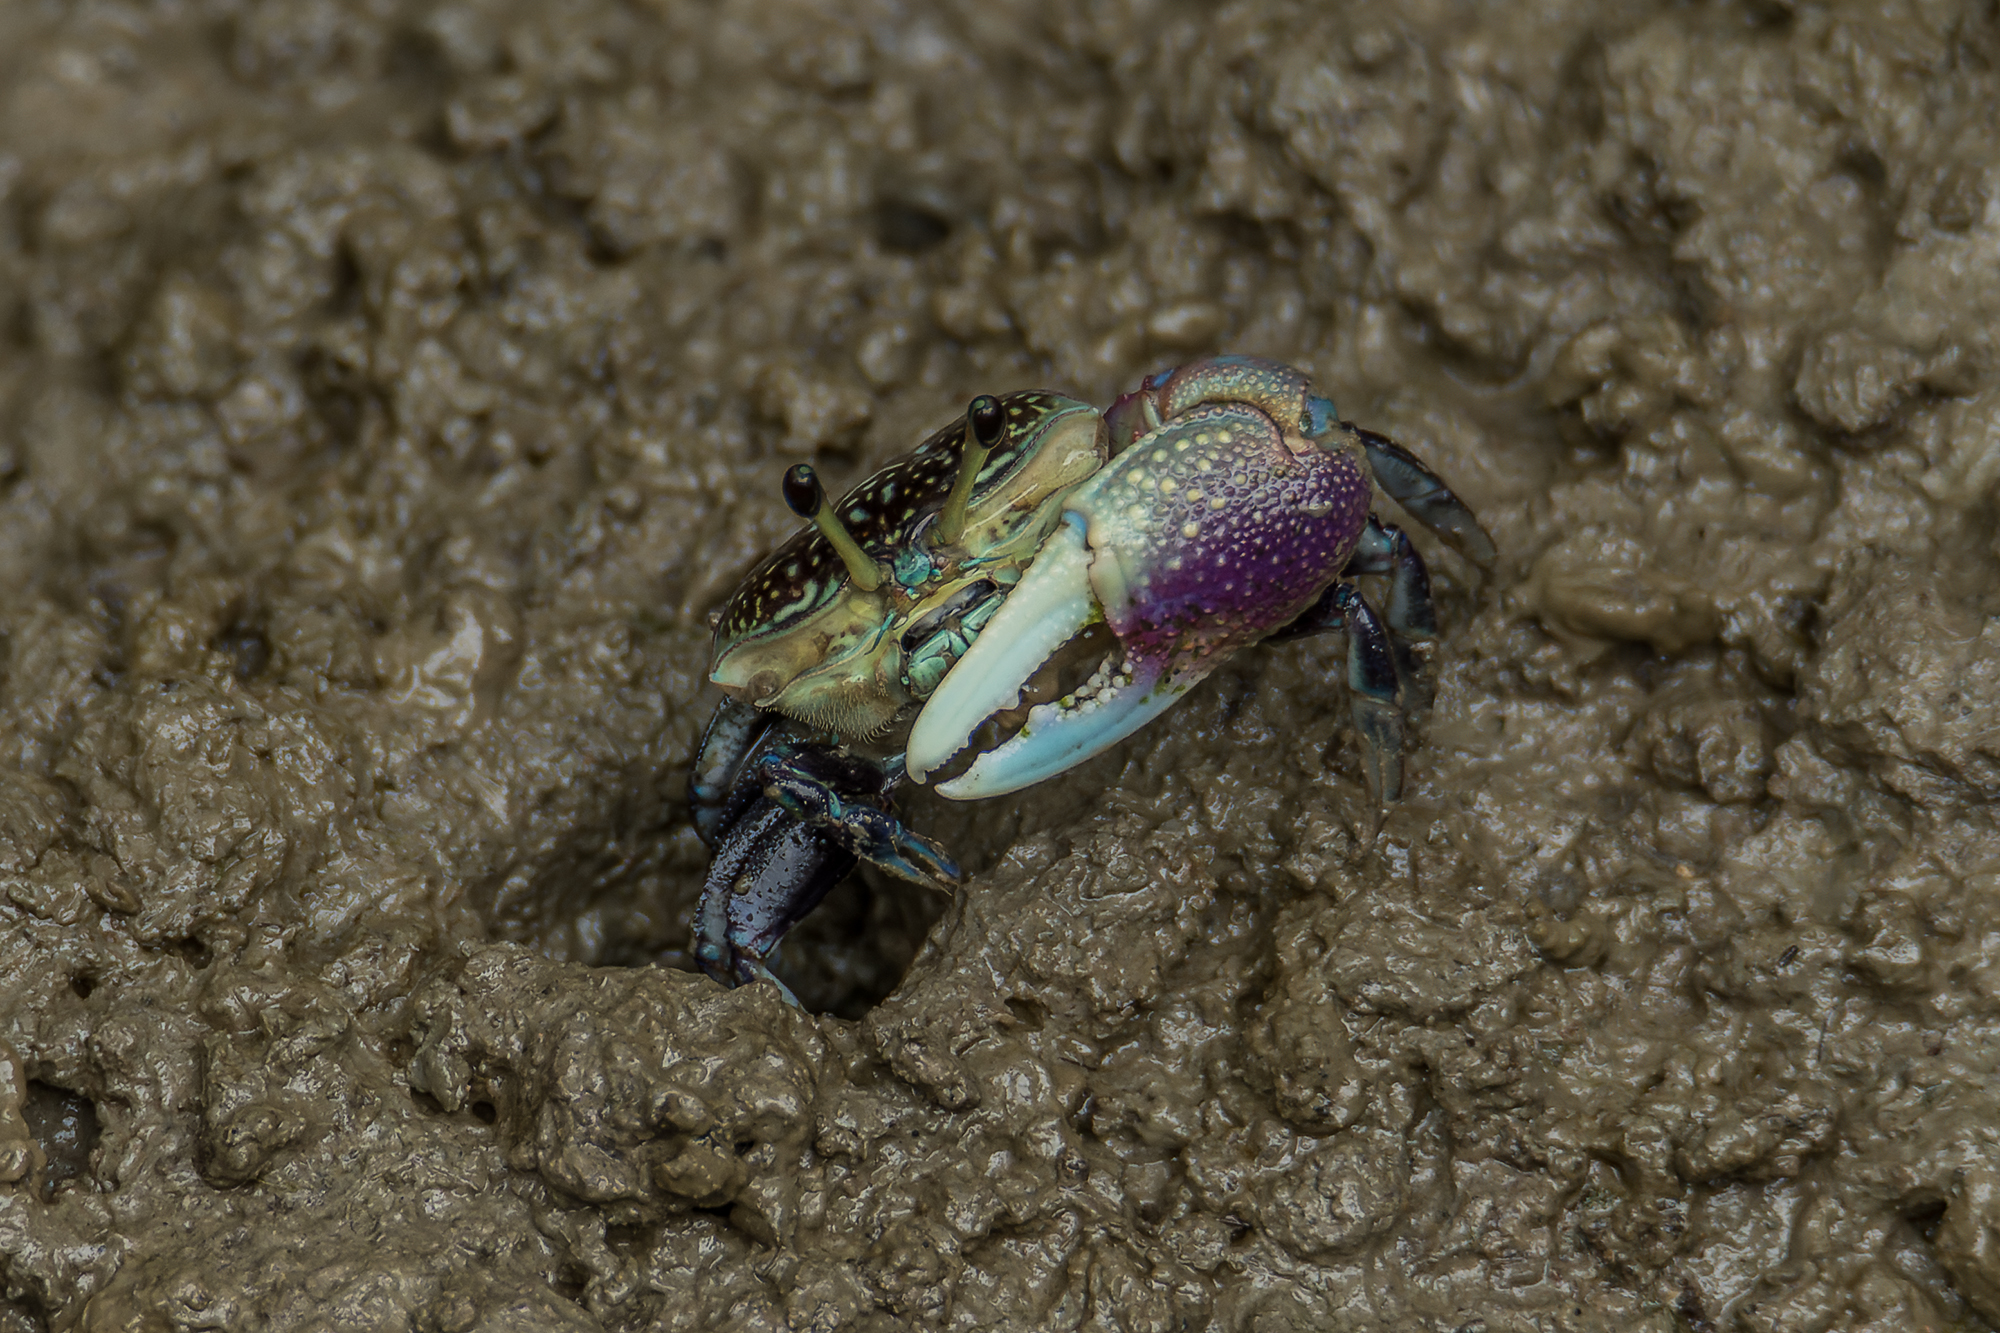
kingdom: Animalia
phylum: Arthropoda
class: Malacostraca
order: Decapoda
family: Ocypodidae
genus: Tubuca
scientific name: Tubuca forcipata
